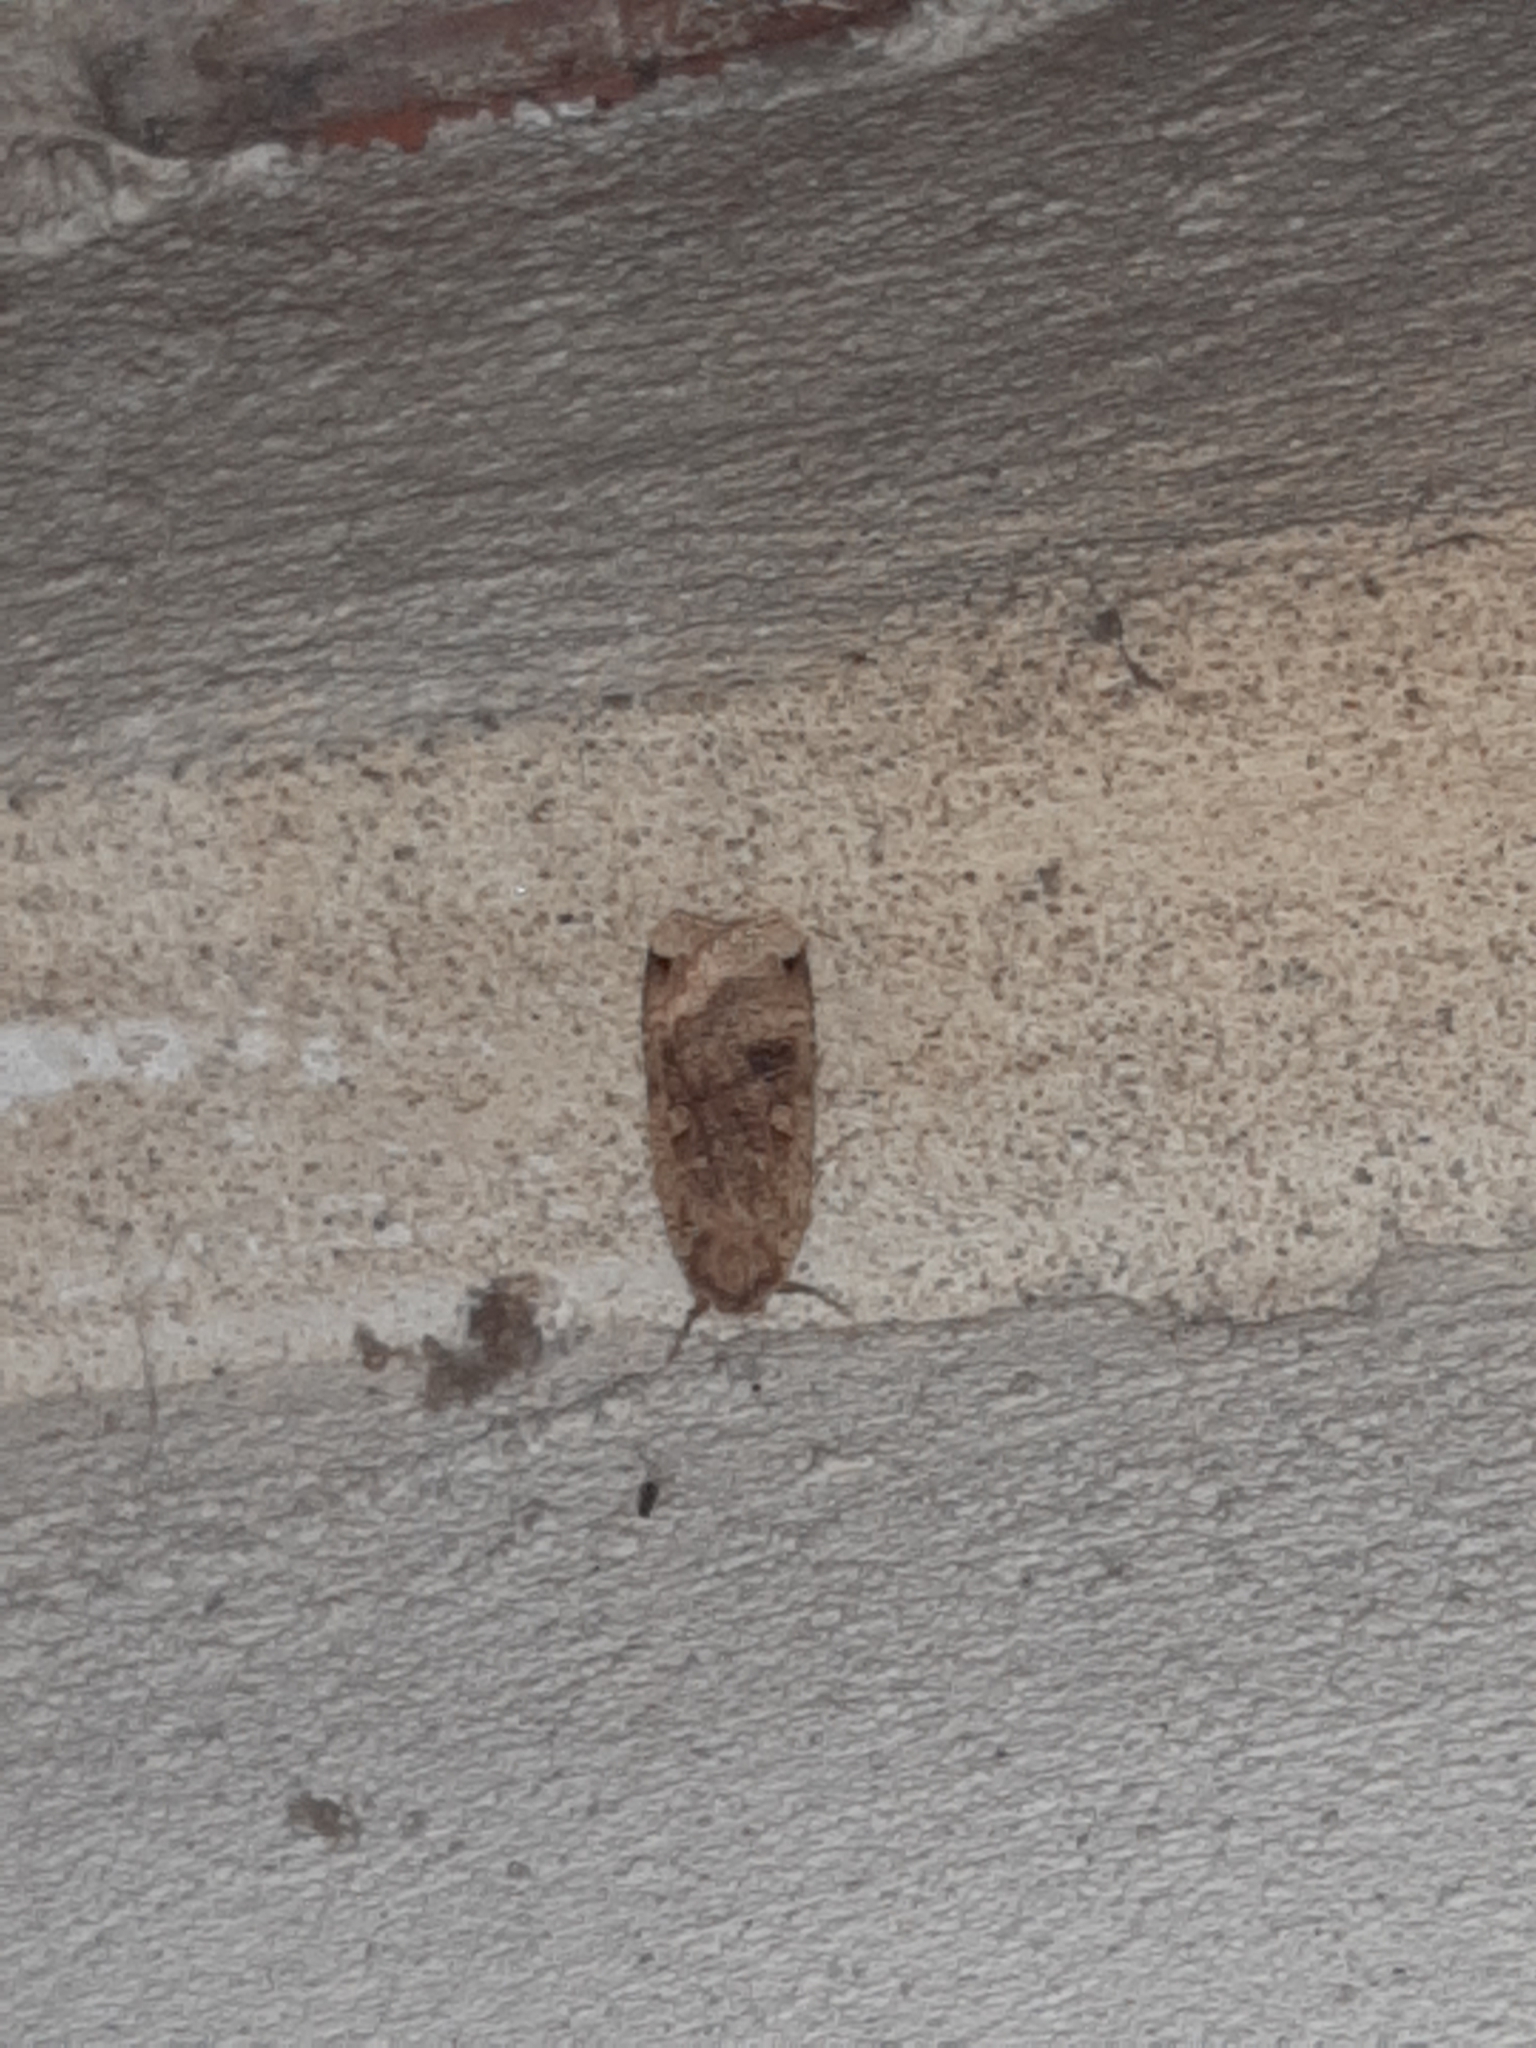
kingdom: Animalia
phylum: Arthropoda
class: Insecta
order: Lepidoptera
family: Noctuidae
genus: Noctua
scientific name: Noctua pronuba
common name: Large yellow underwing
